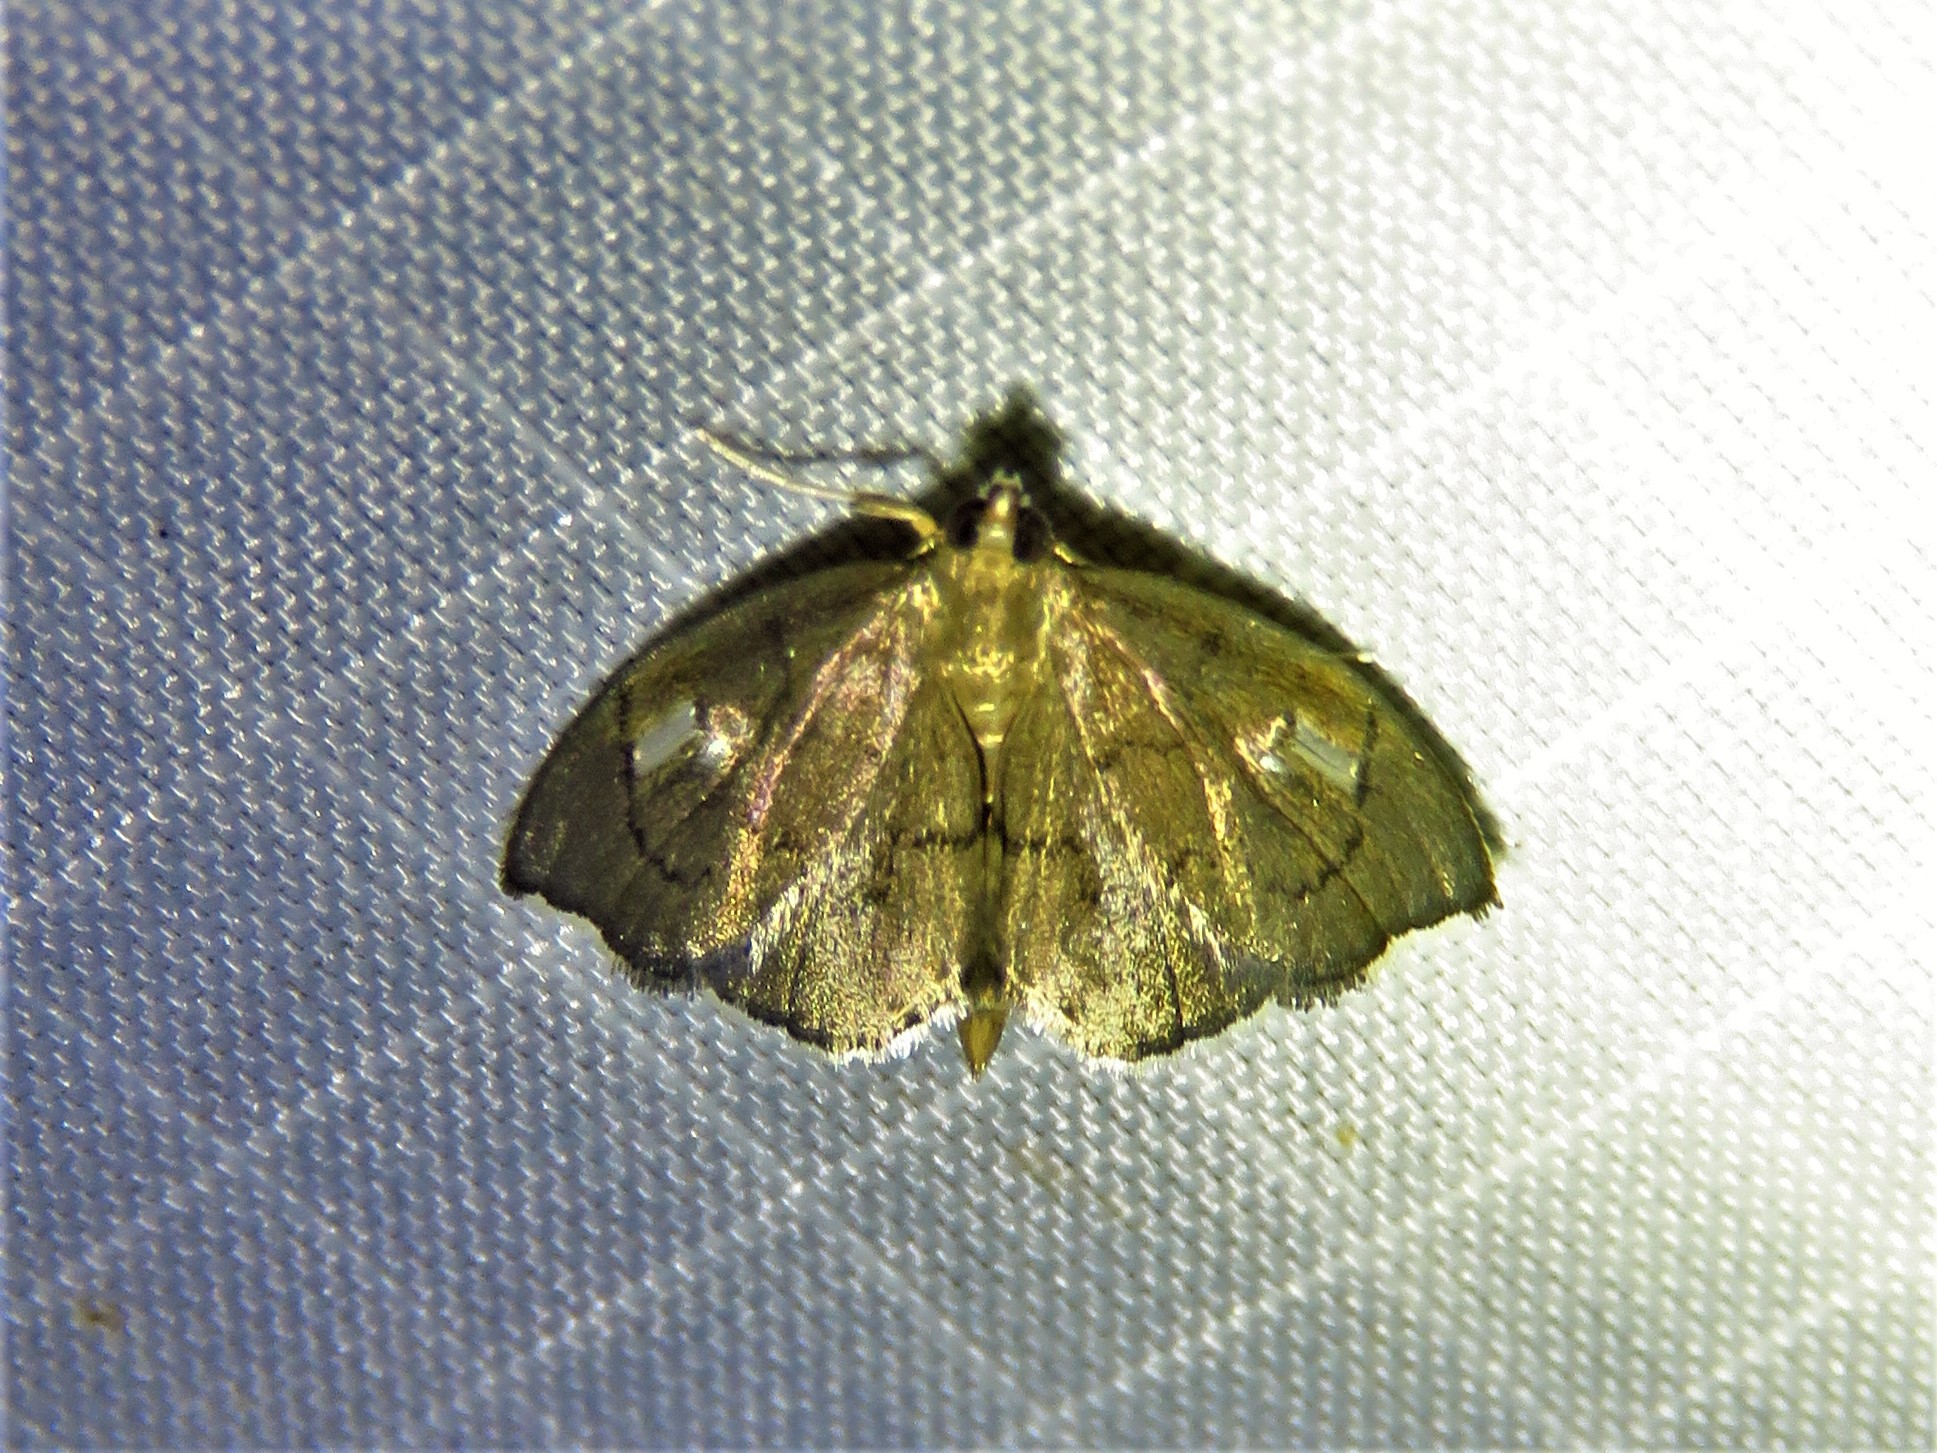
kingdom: Animalia
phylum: Arthropoda
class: Insecta
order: Lepidoptera
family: Crambidae
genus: Perispasta
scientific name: Perispasta caeculalis
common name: Titian peale's moth
